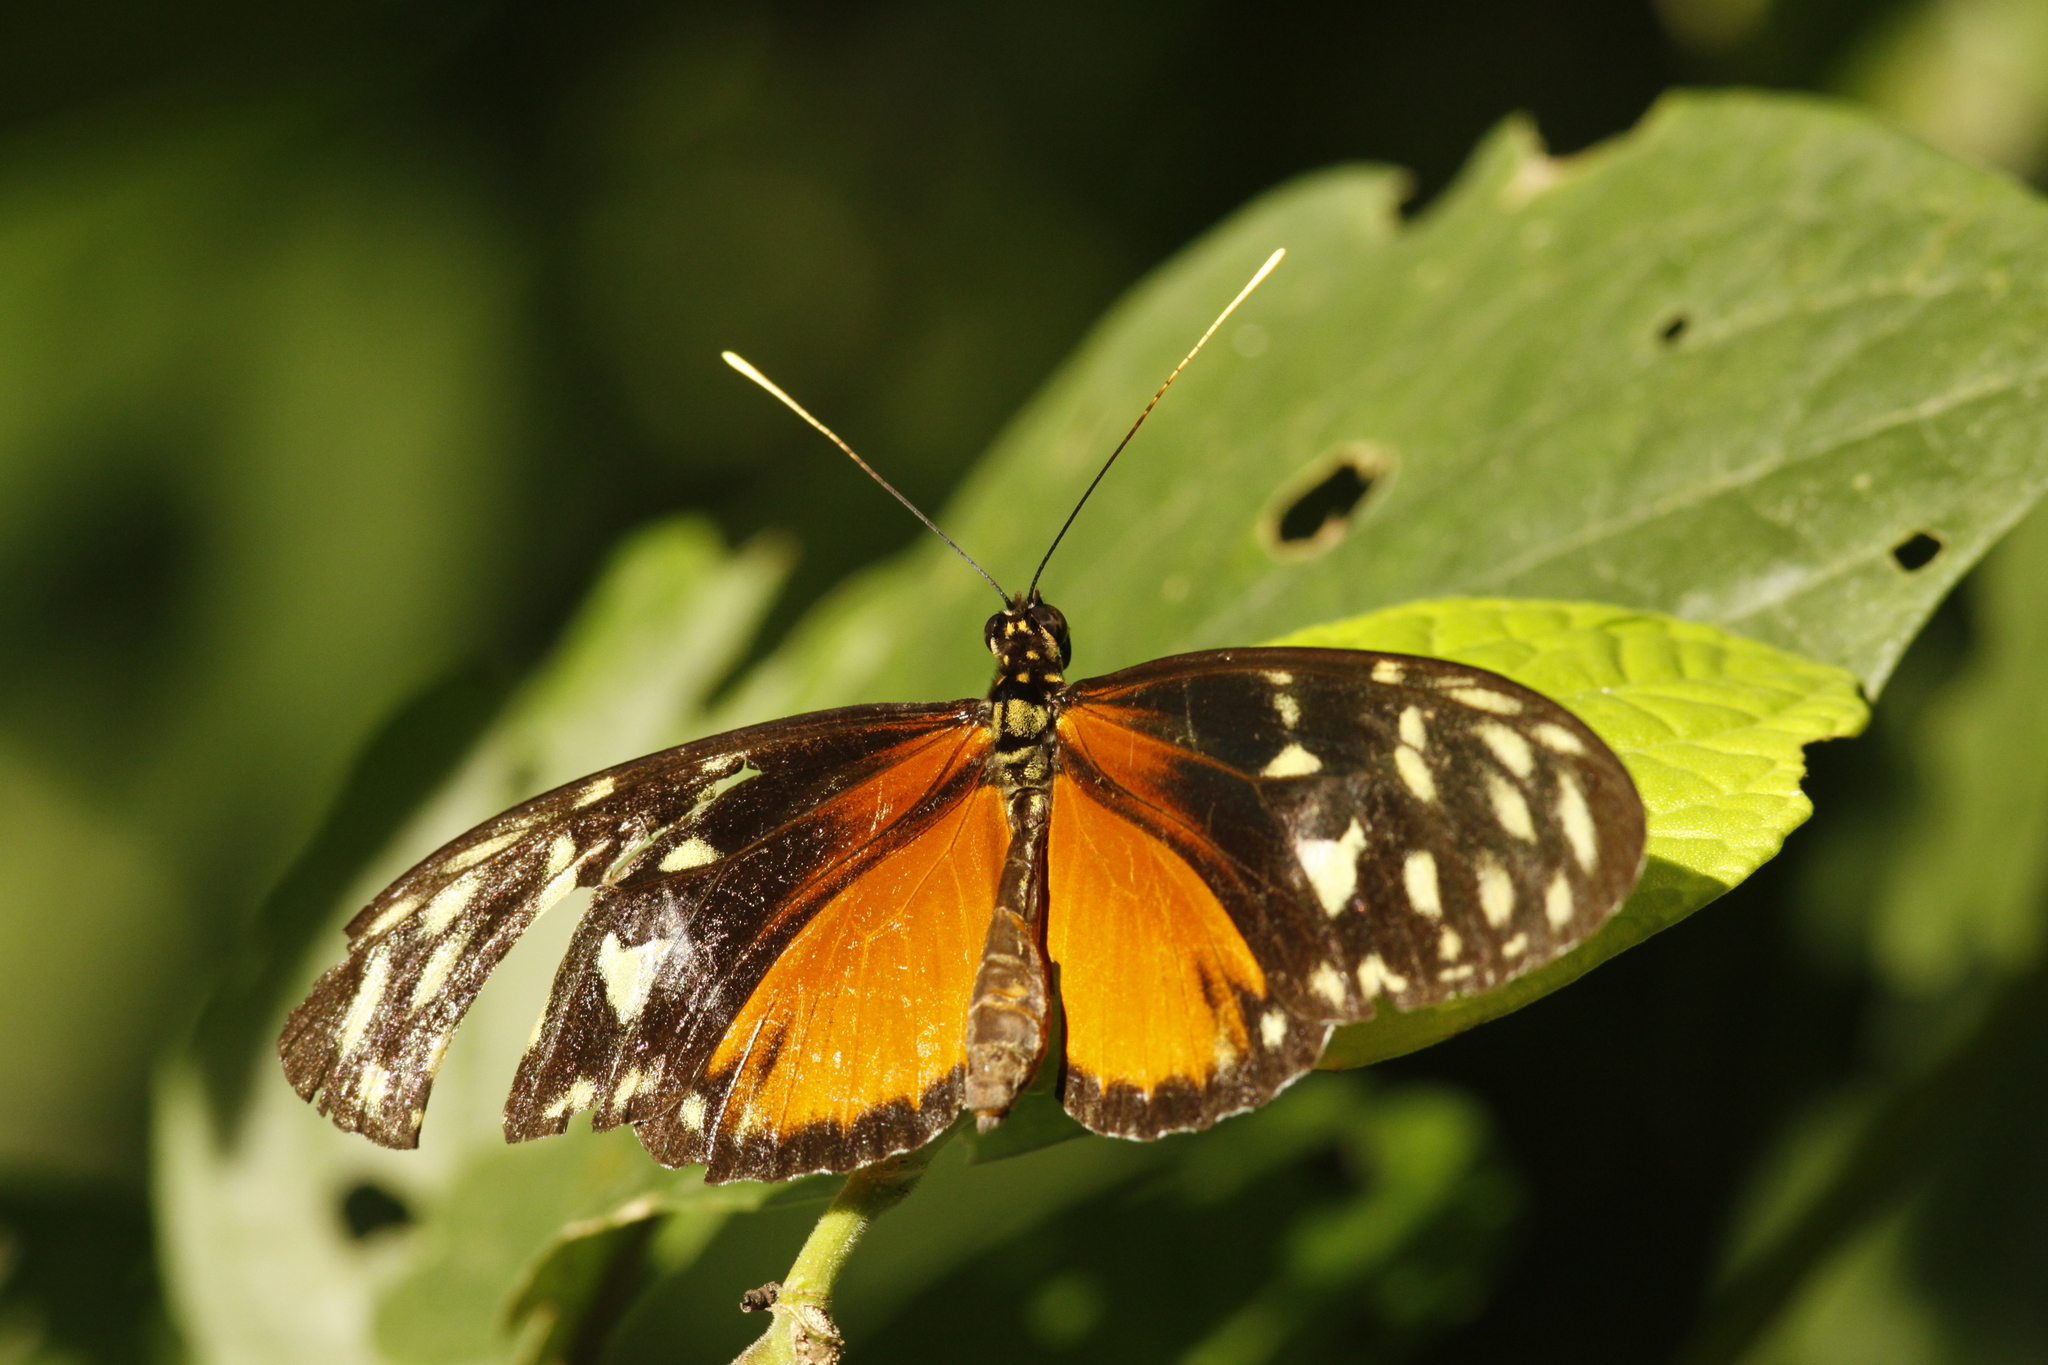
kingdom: Animalia
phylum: Arthropoda
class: Insecta
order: Lepidoptera
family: Nymphalidae
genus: Heliconius
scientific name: Heliconius hecale
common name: Tiger longwing
